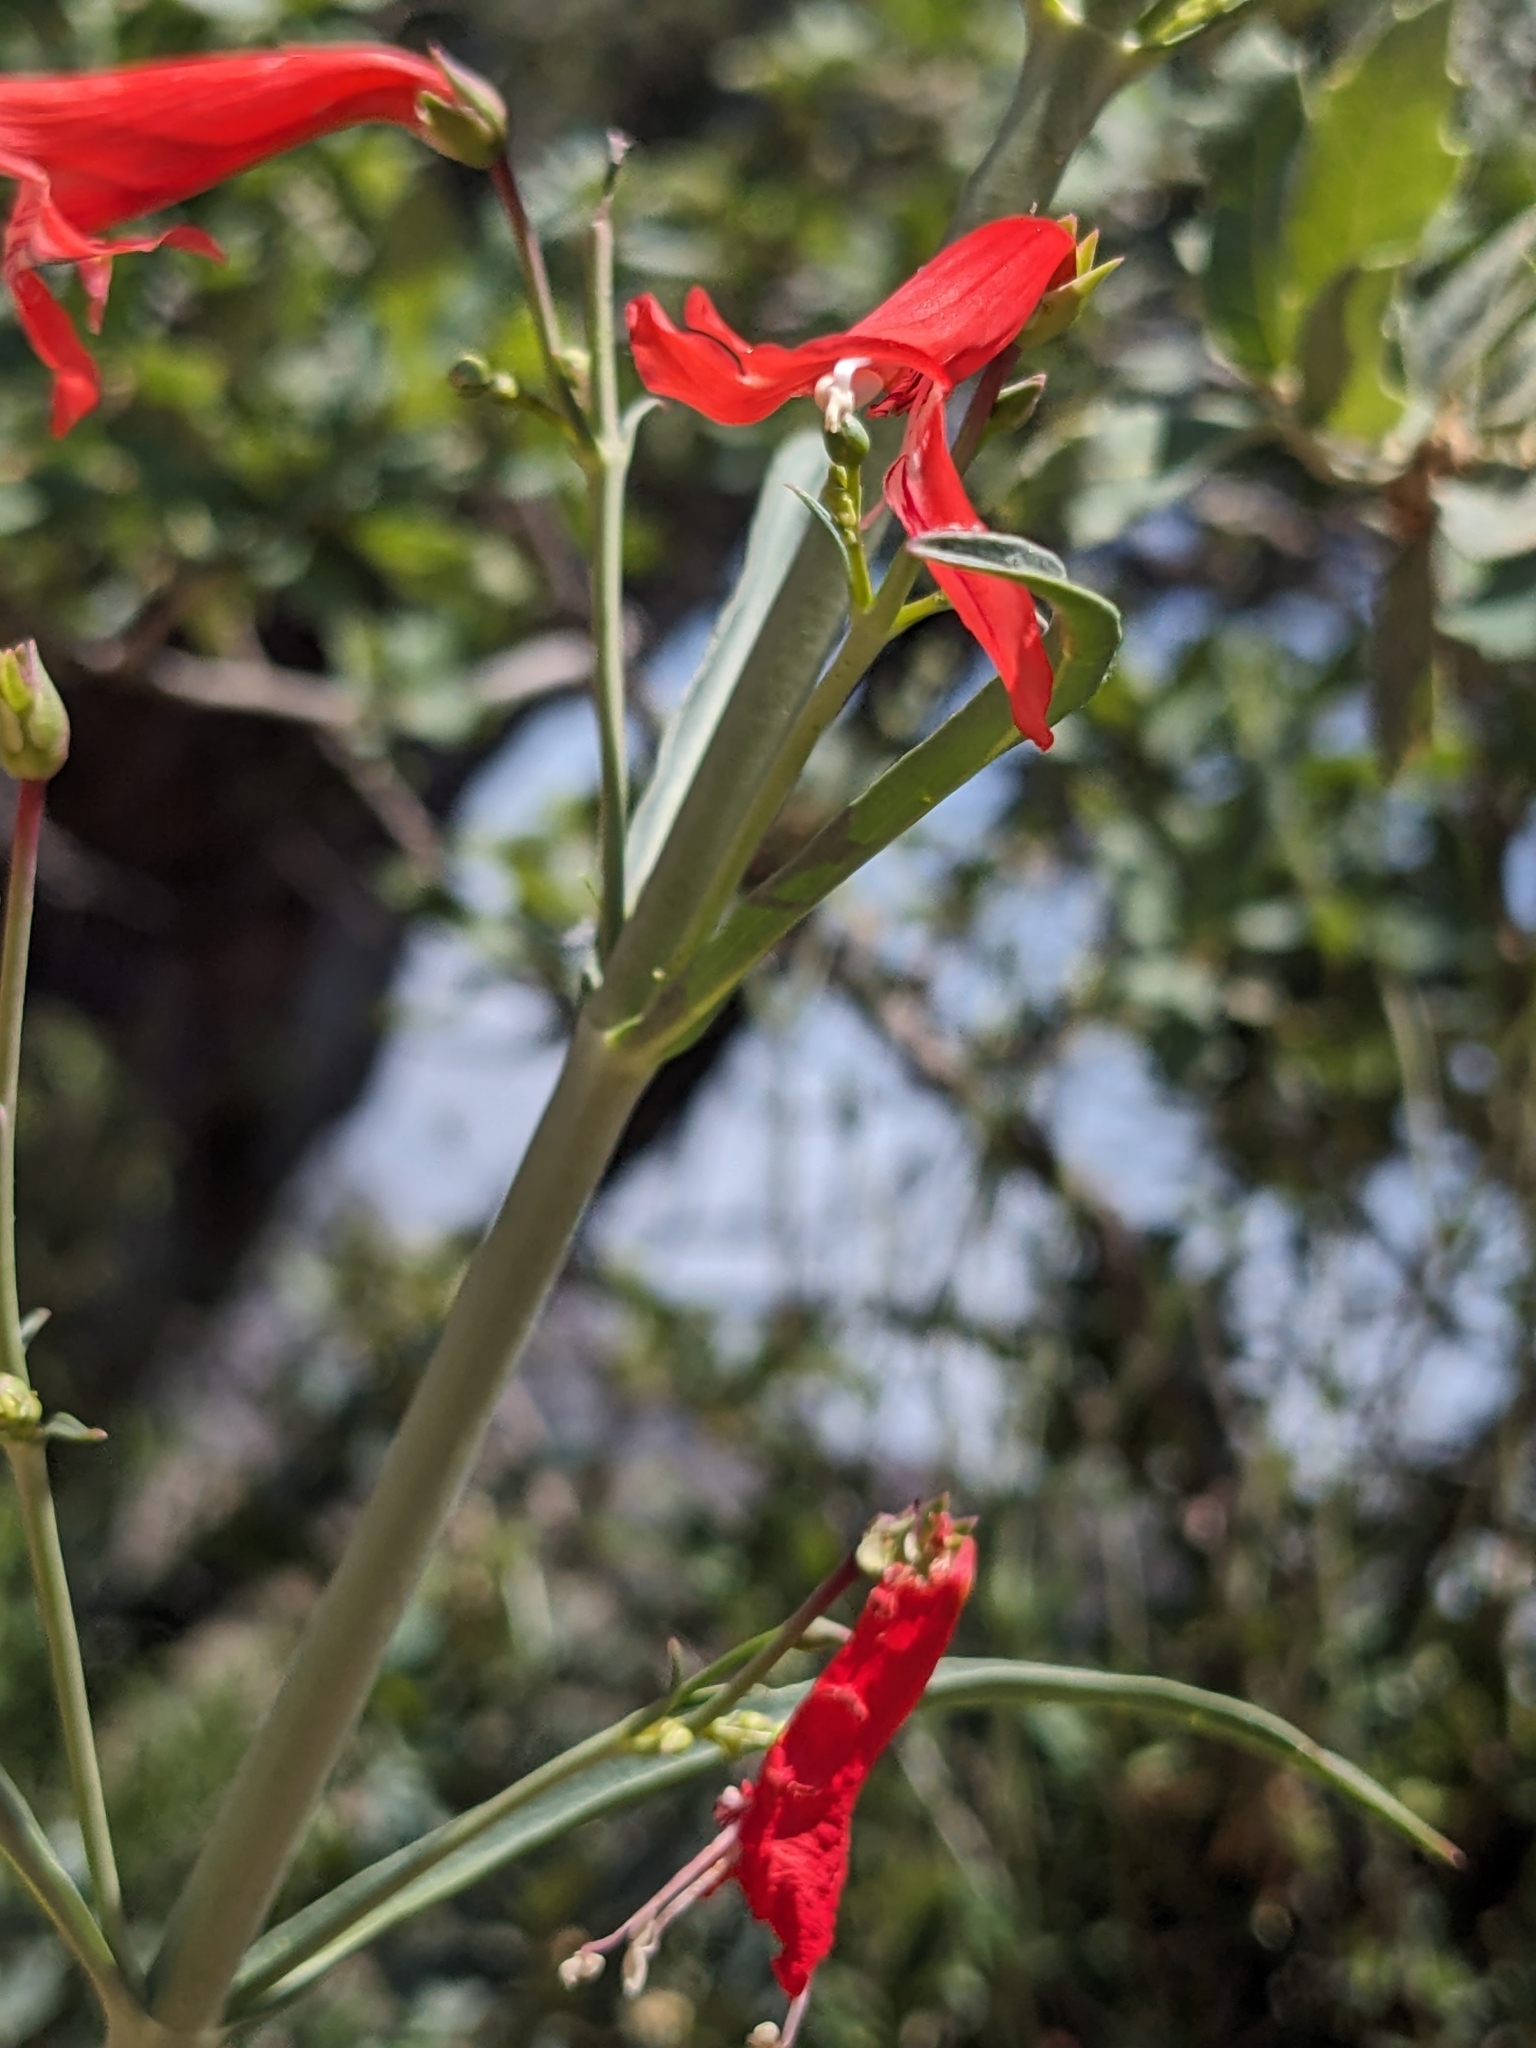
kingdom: Plantae
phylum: Tracheophyta
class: Magnoliopsida
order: Lamiales
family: Plantaginaceae
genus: Penstemon
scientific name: Penstemon barbatus
